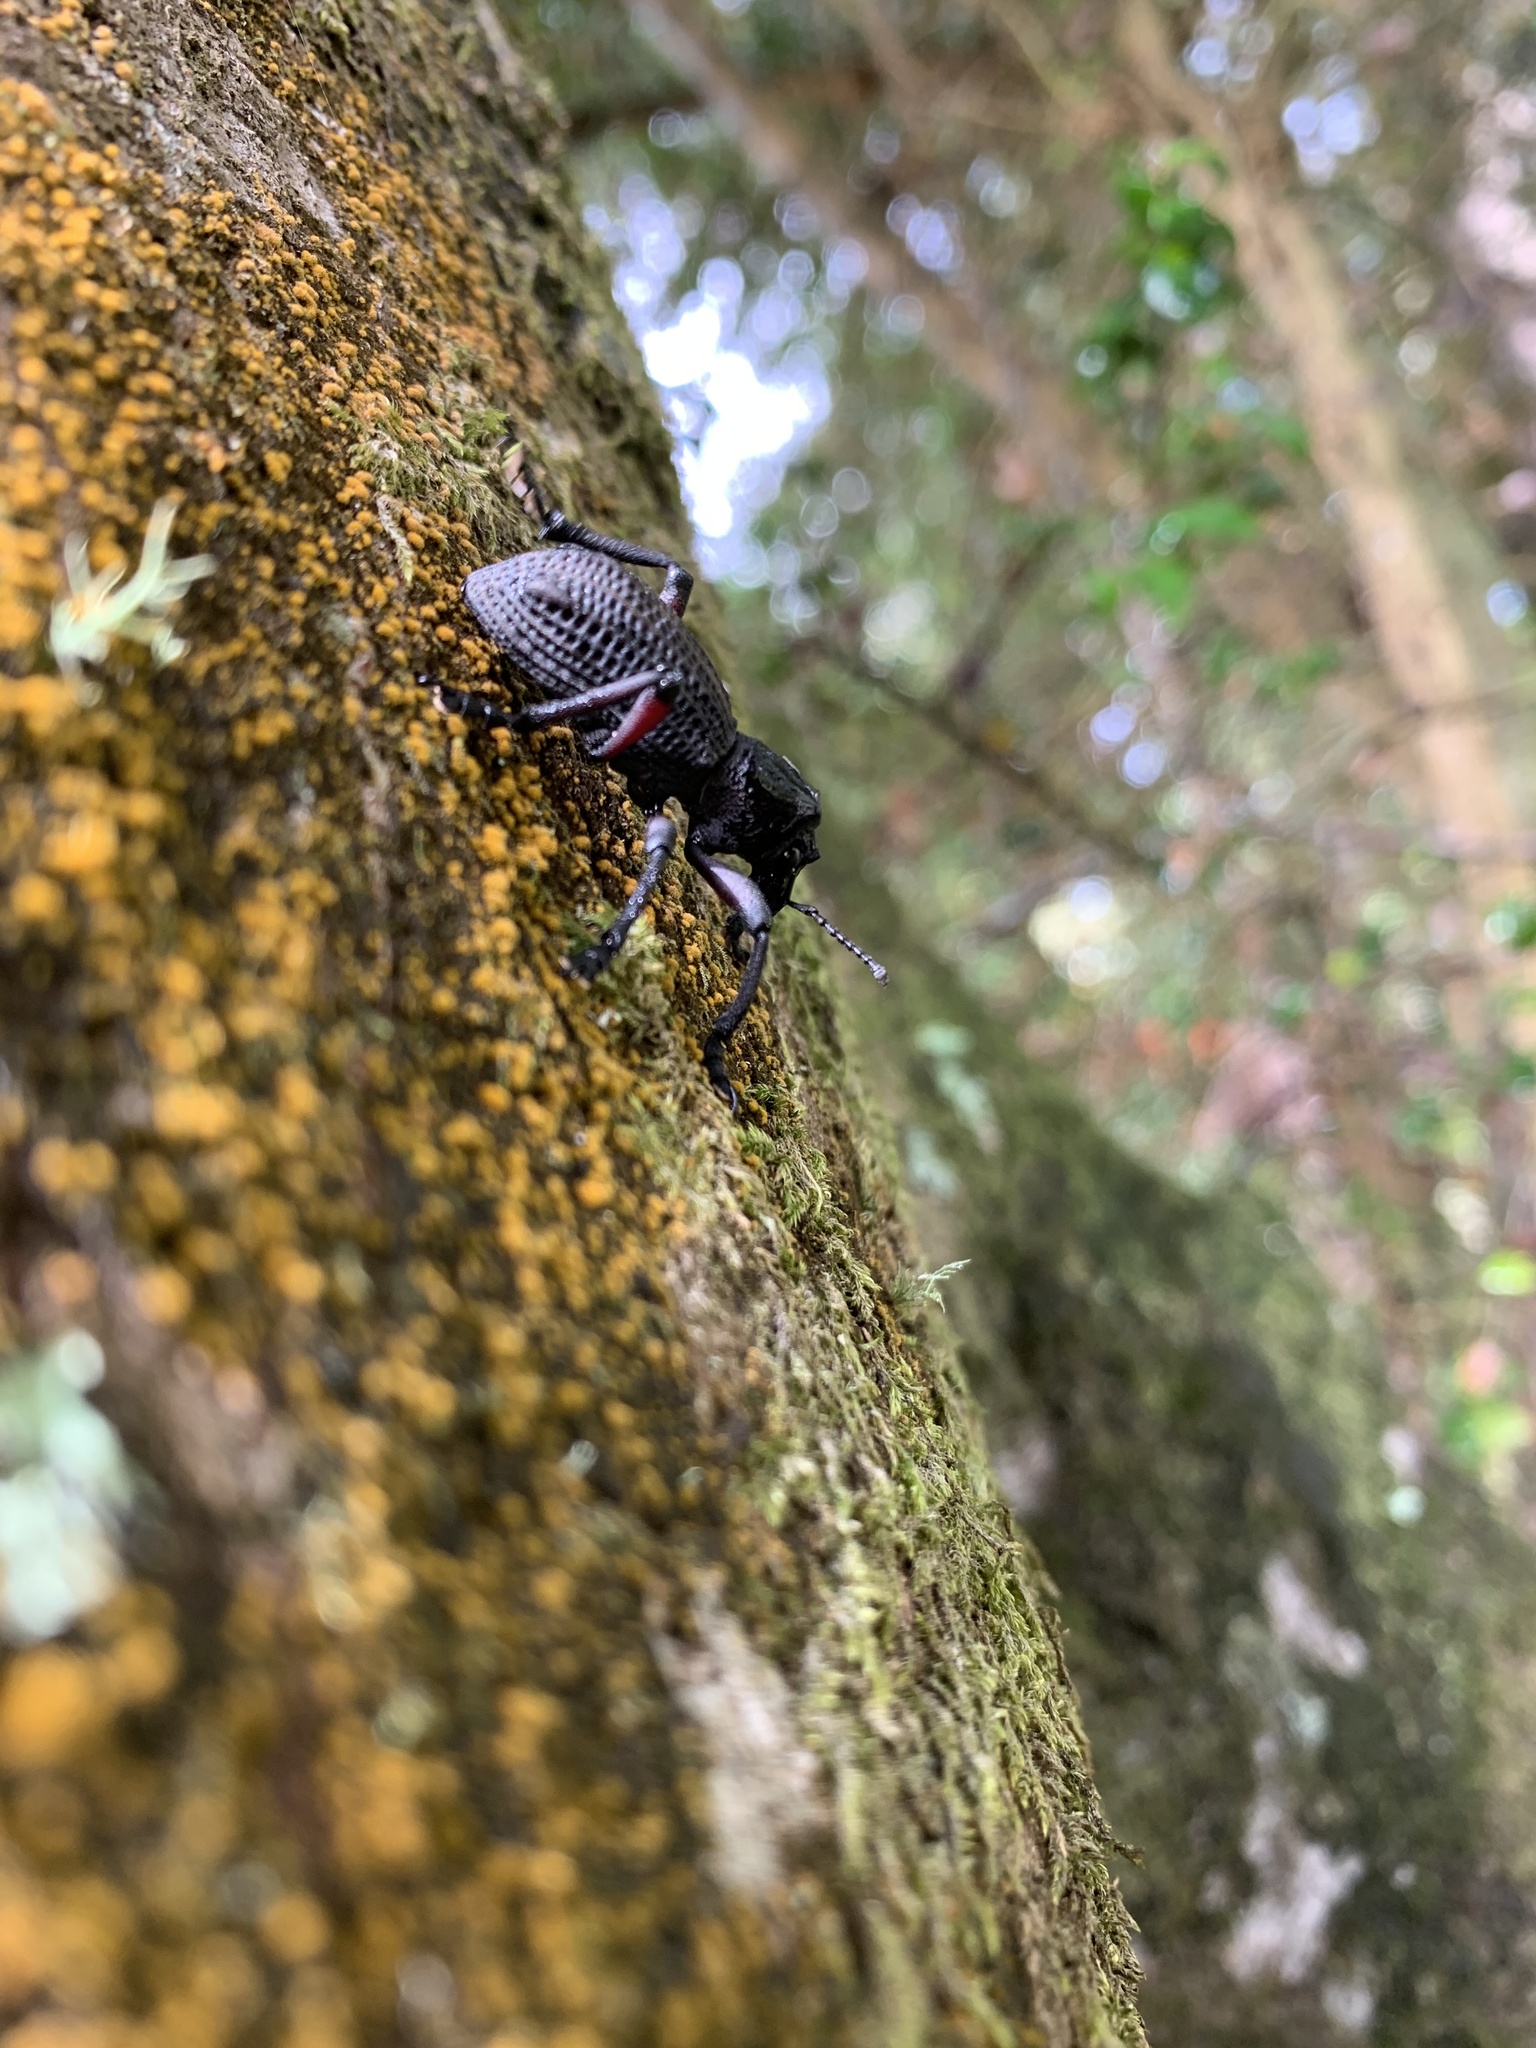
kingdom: Animalia
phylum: Arthropoda
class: Insecta
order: Coleoptera
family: Curculionidae
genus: Aegorhinus
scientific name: Aegorhinus
